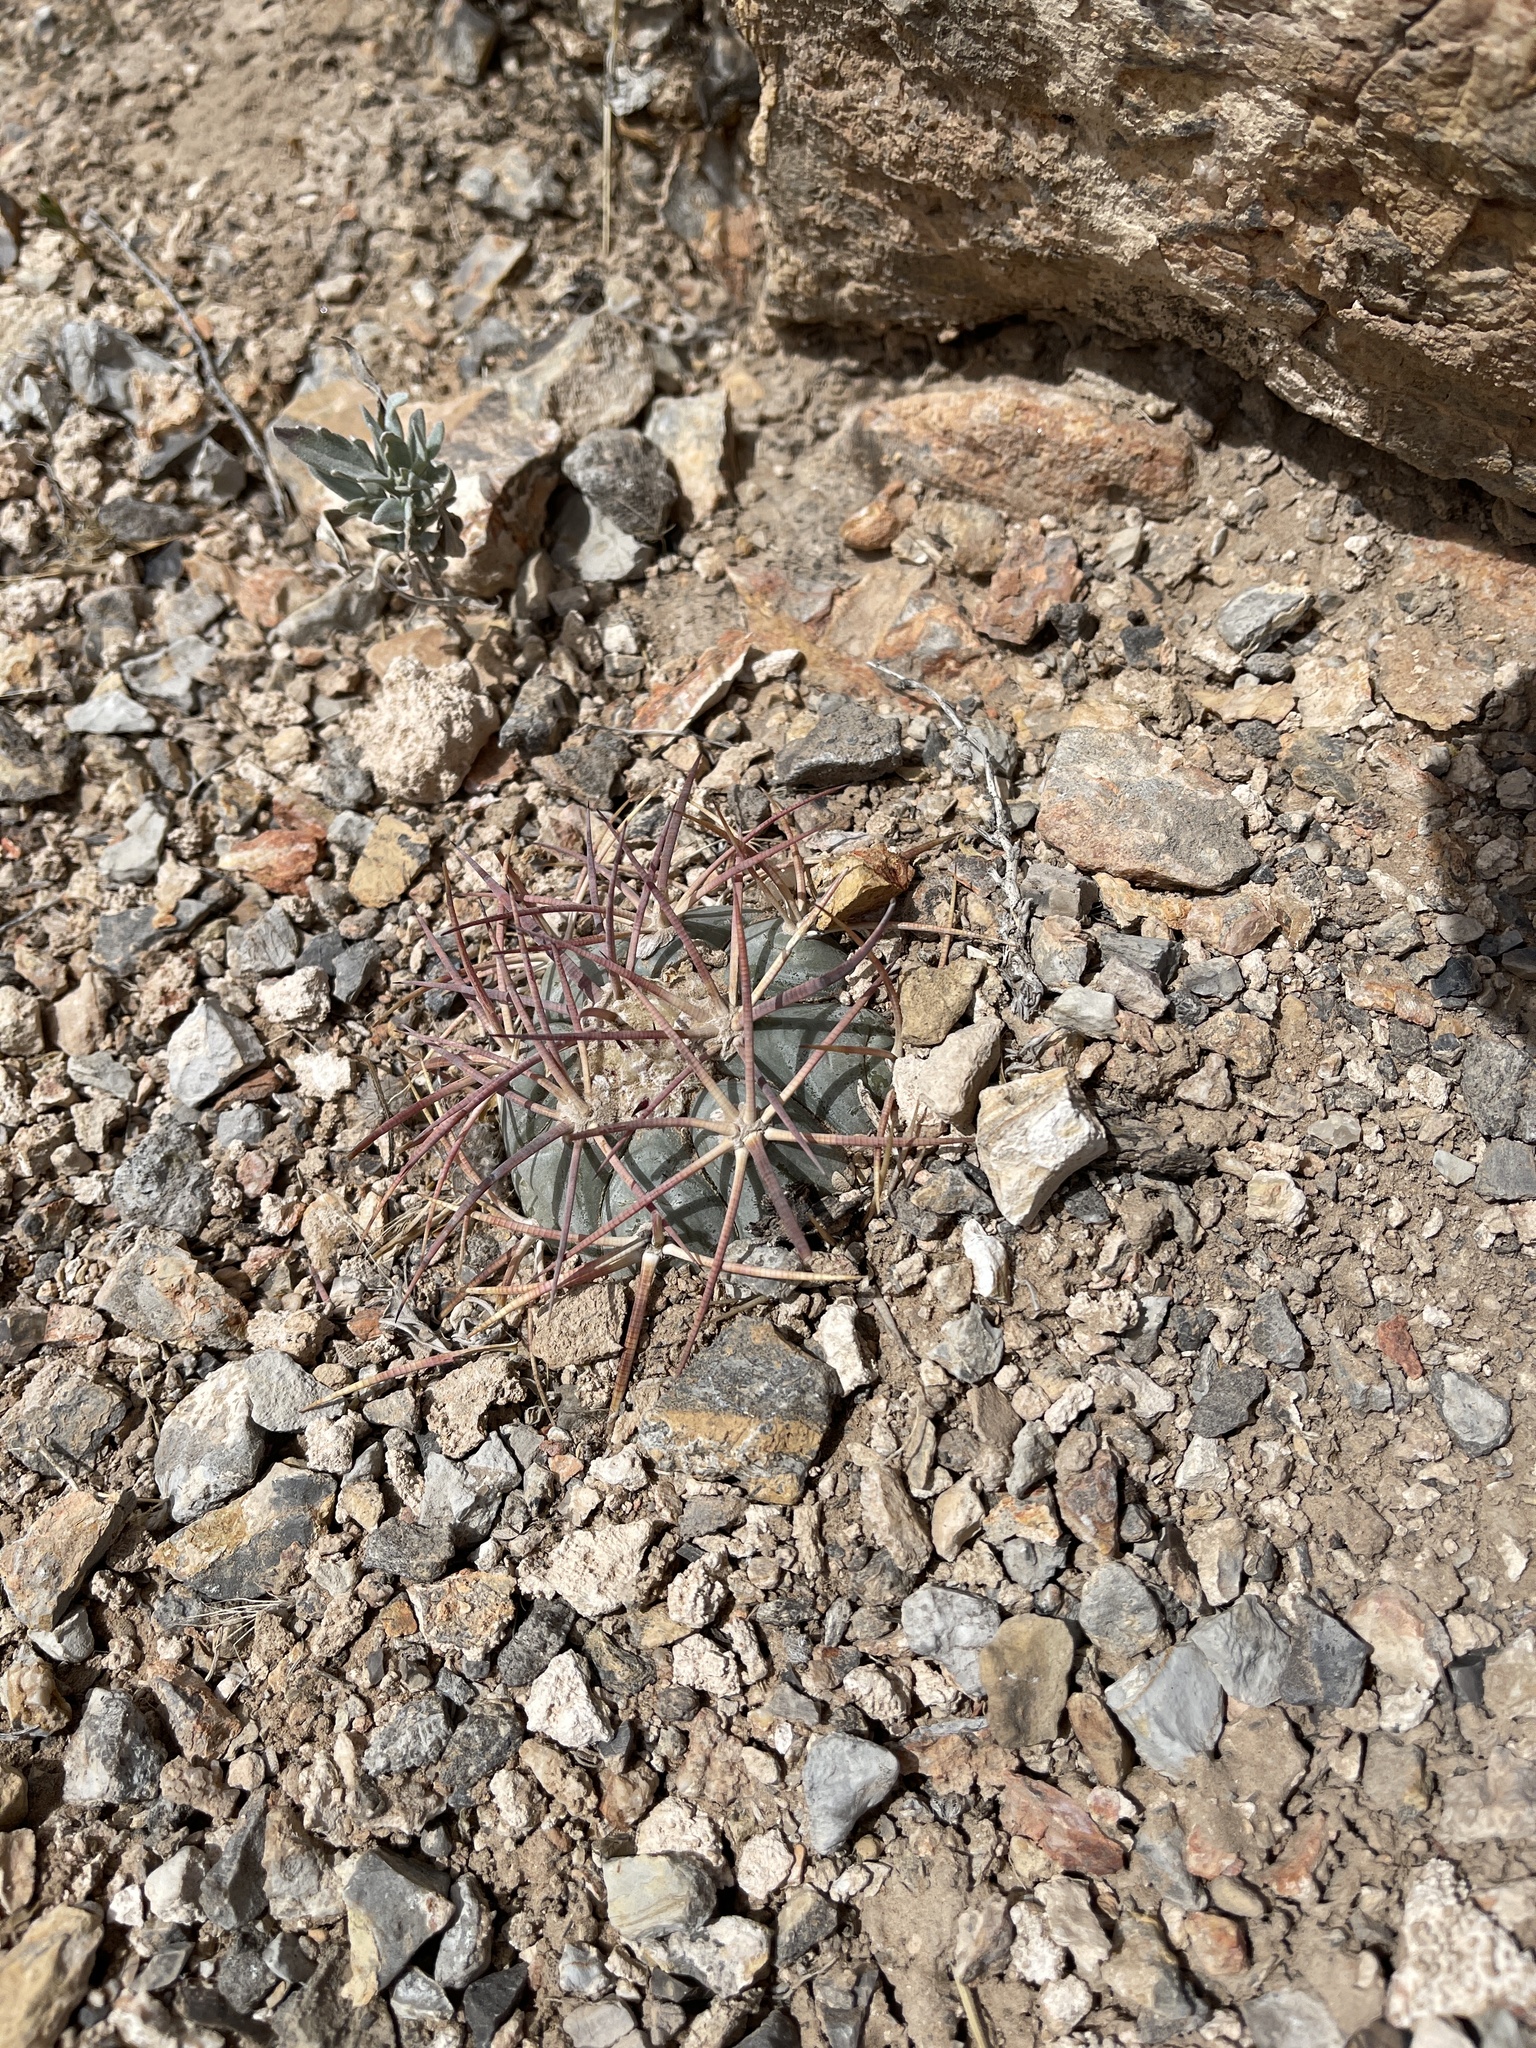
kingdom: Plantae
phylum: Tracheophyta
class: Magnoliopsida
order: Caryophyllales
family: Cactaceae
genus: Echinocactus
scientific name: Echinocactus horizonthalonius
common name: Devilshead
